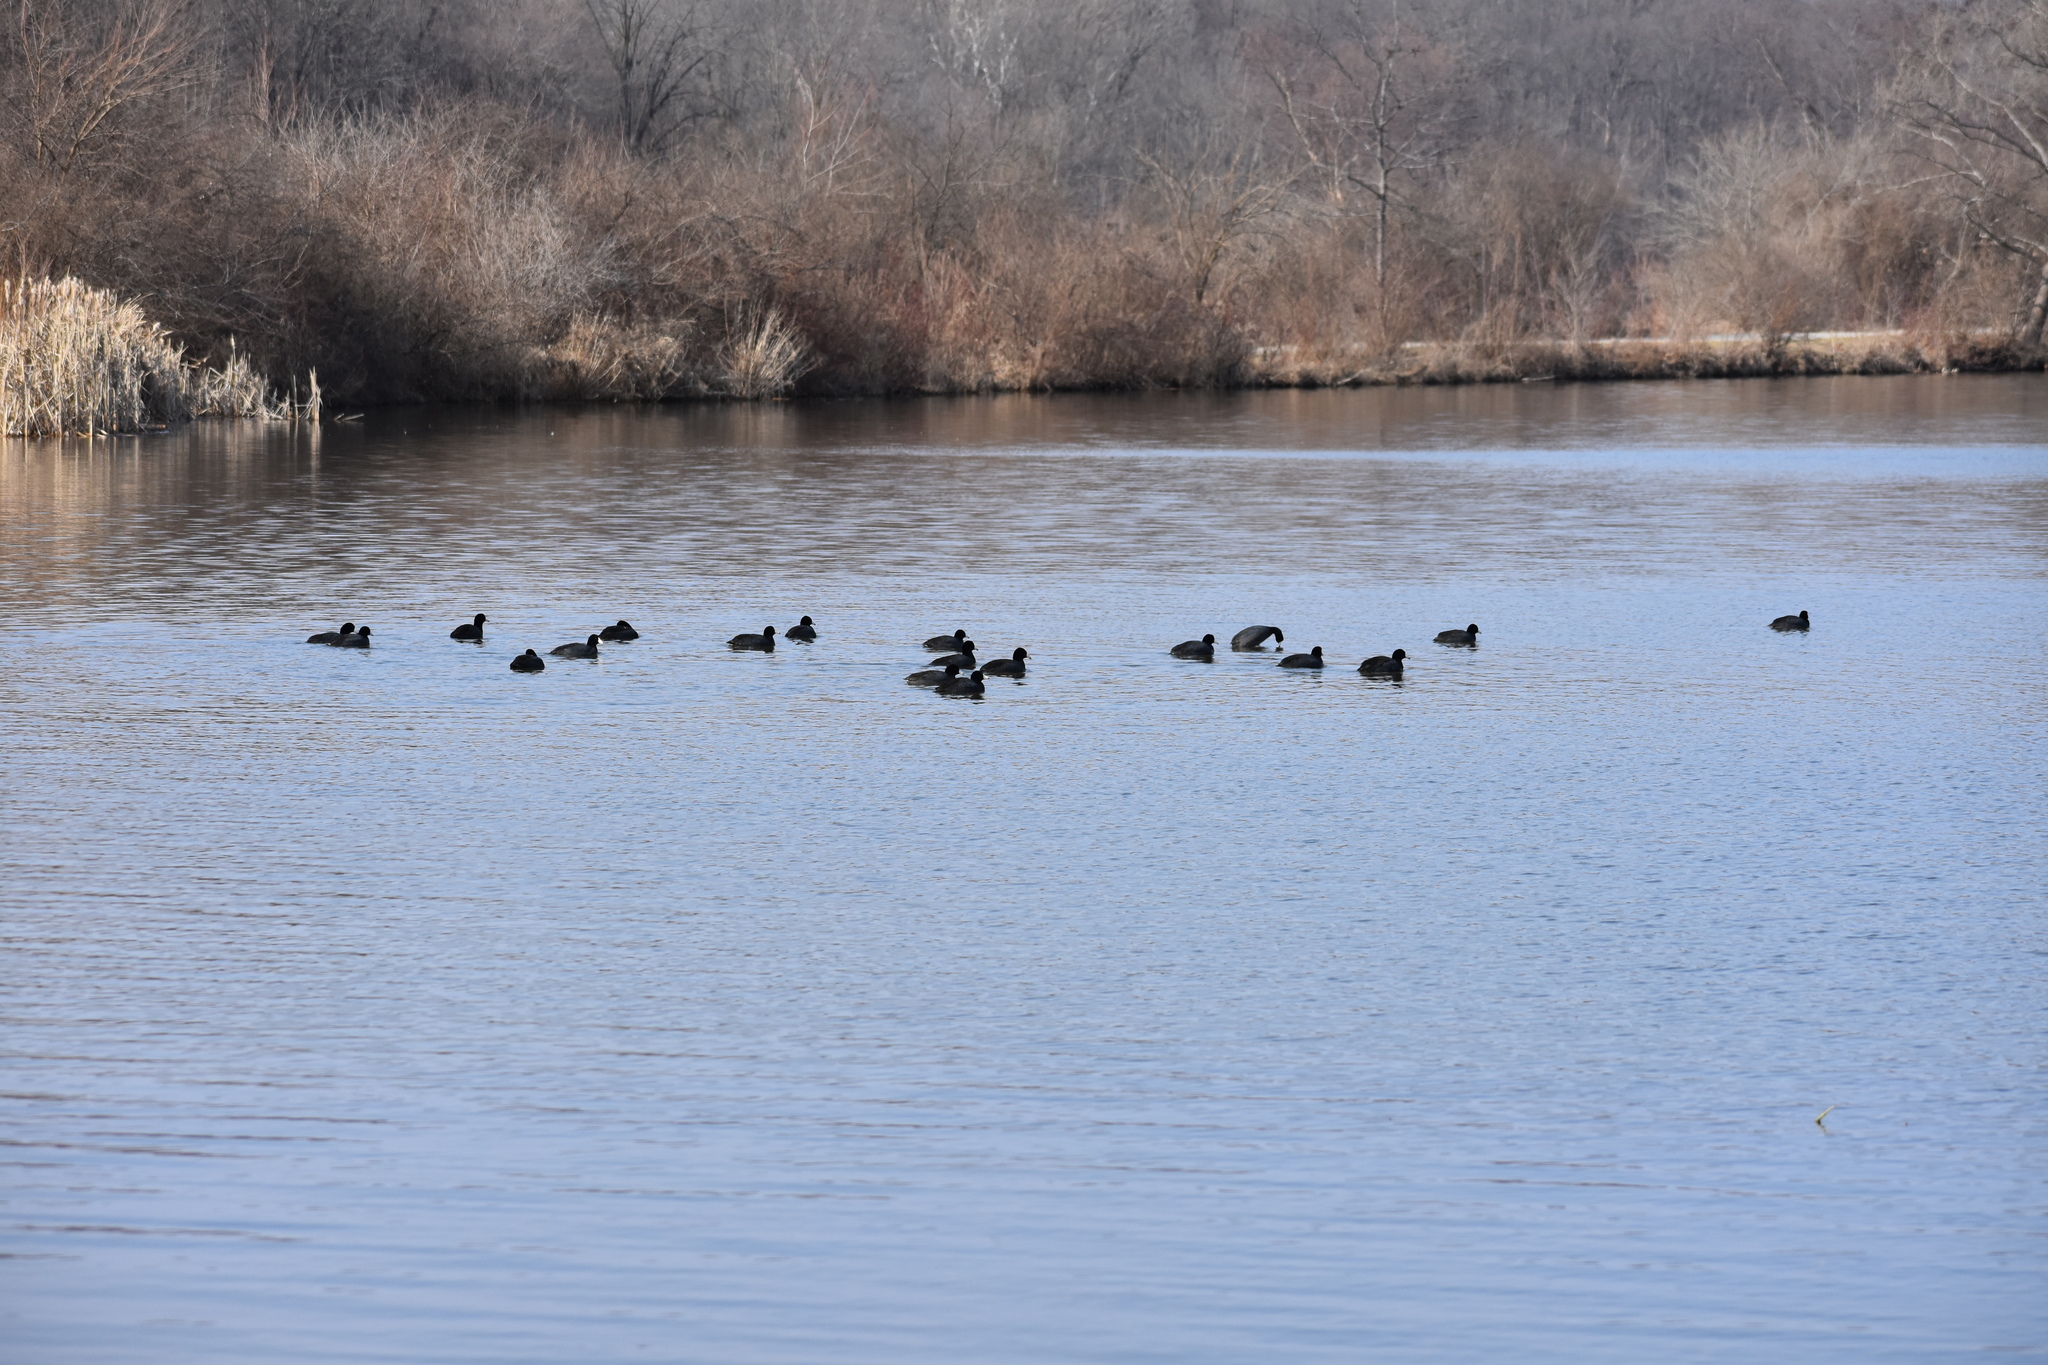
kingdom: Animalia
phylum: Chordata
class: Aves
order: Gruiformes
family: Rallidae
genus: Fulica
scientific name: Fulica americana
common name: American coot
